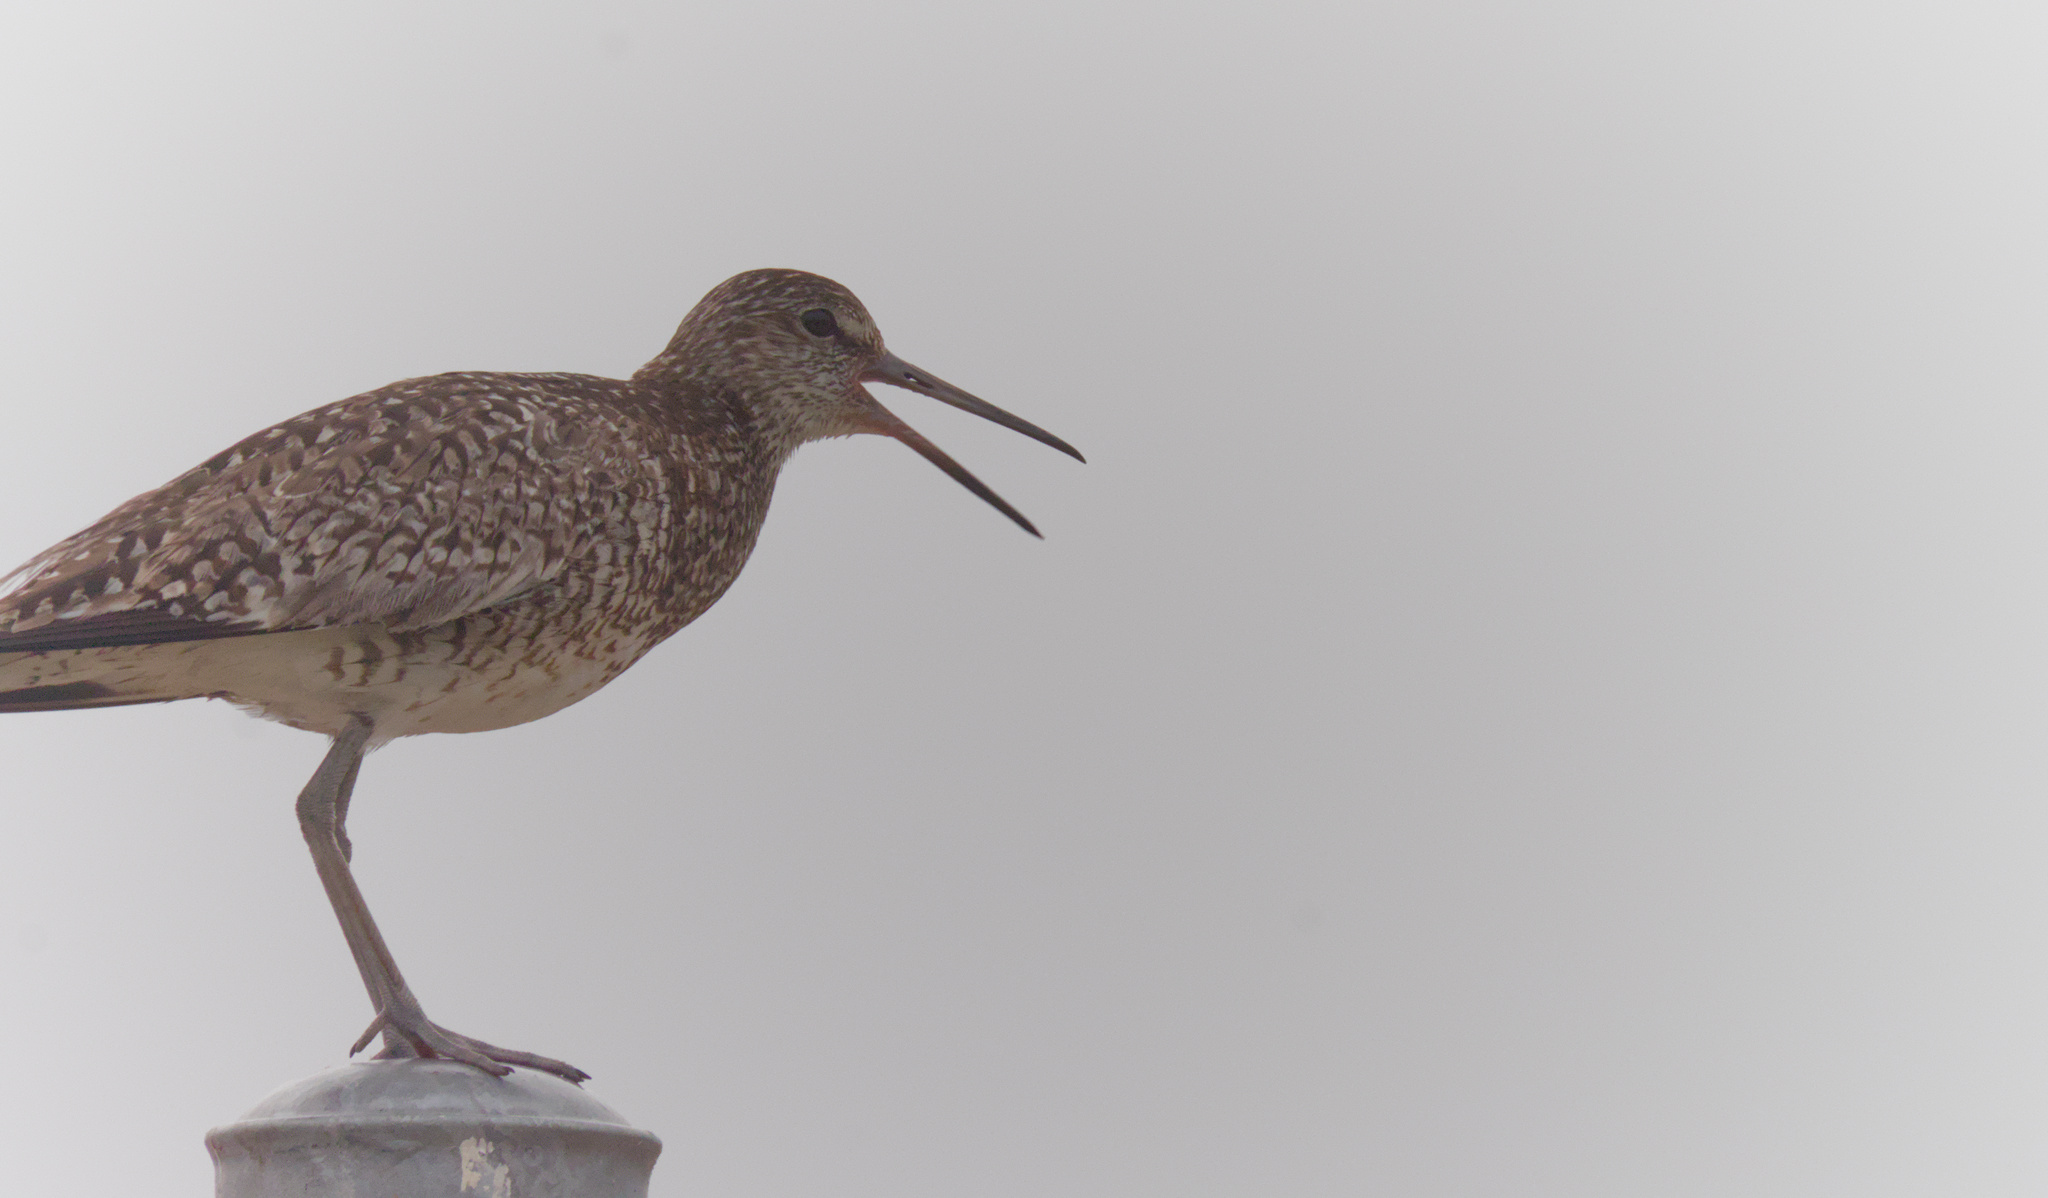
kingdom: Animalia
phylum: Chordata
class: Aves
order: Charadriiformes
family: Scolopacidae
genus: Tringa
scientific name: Tringa semipalmata
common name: Willet
